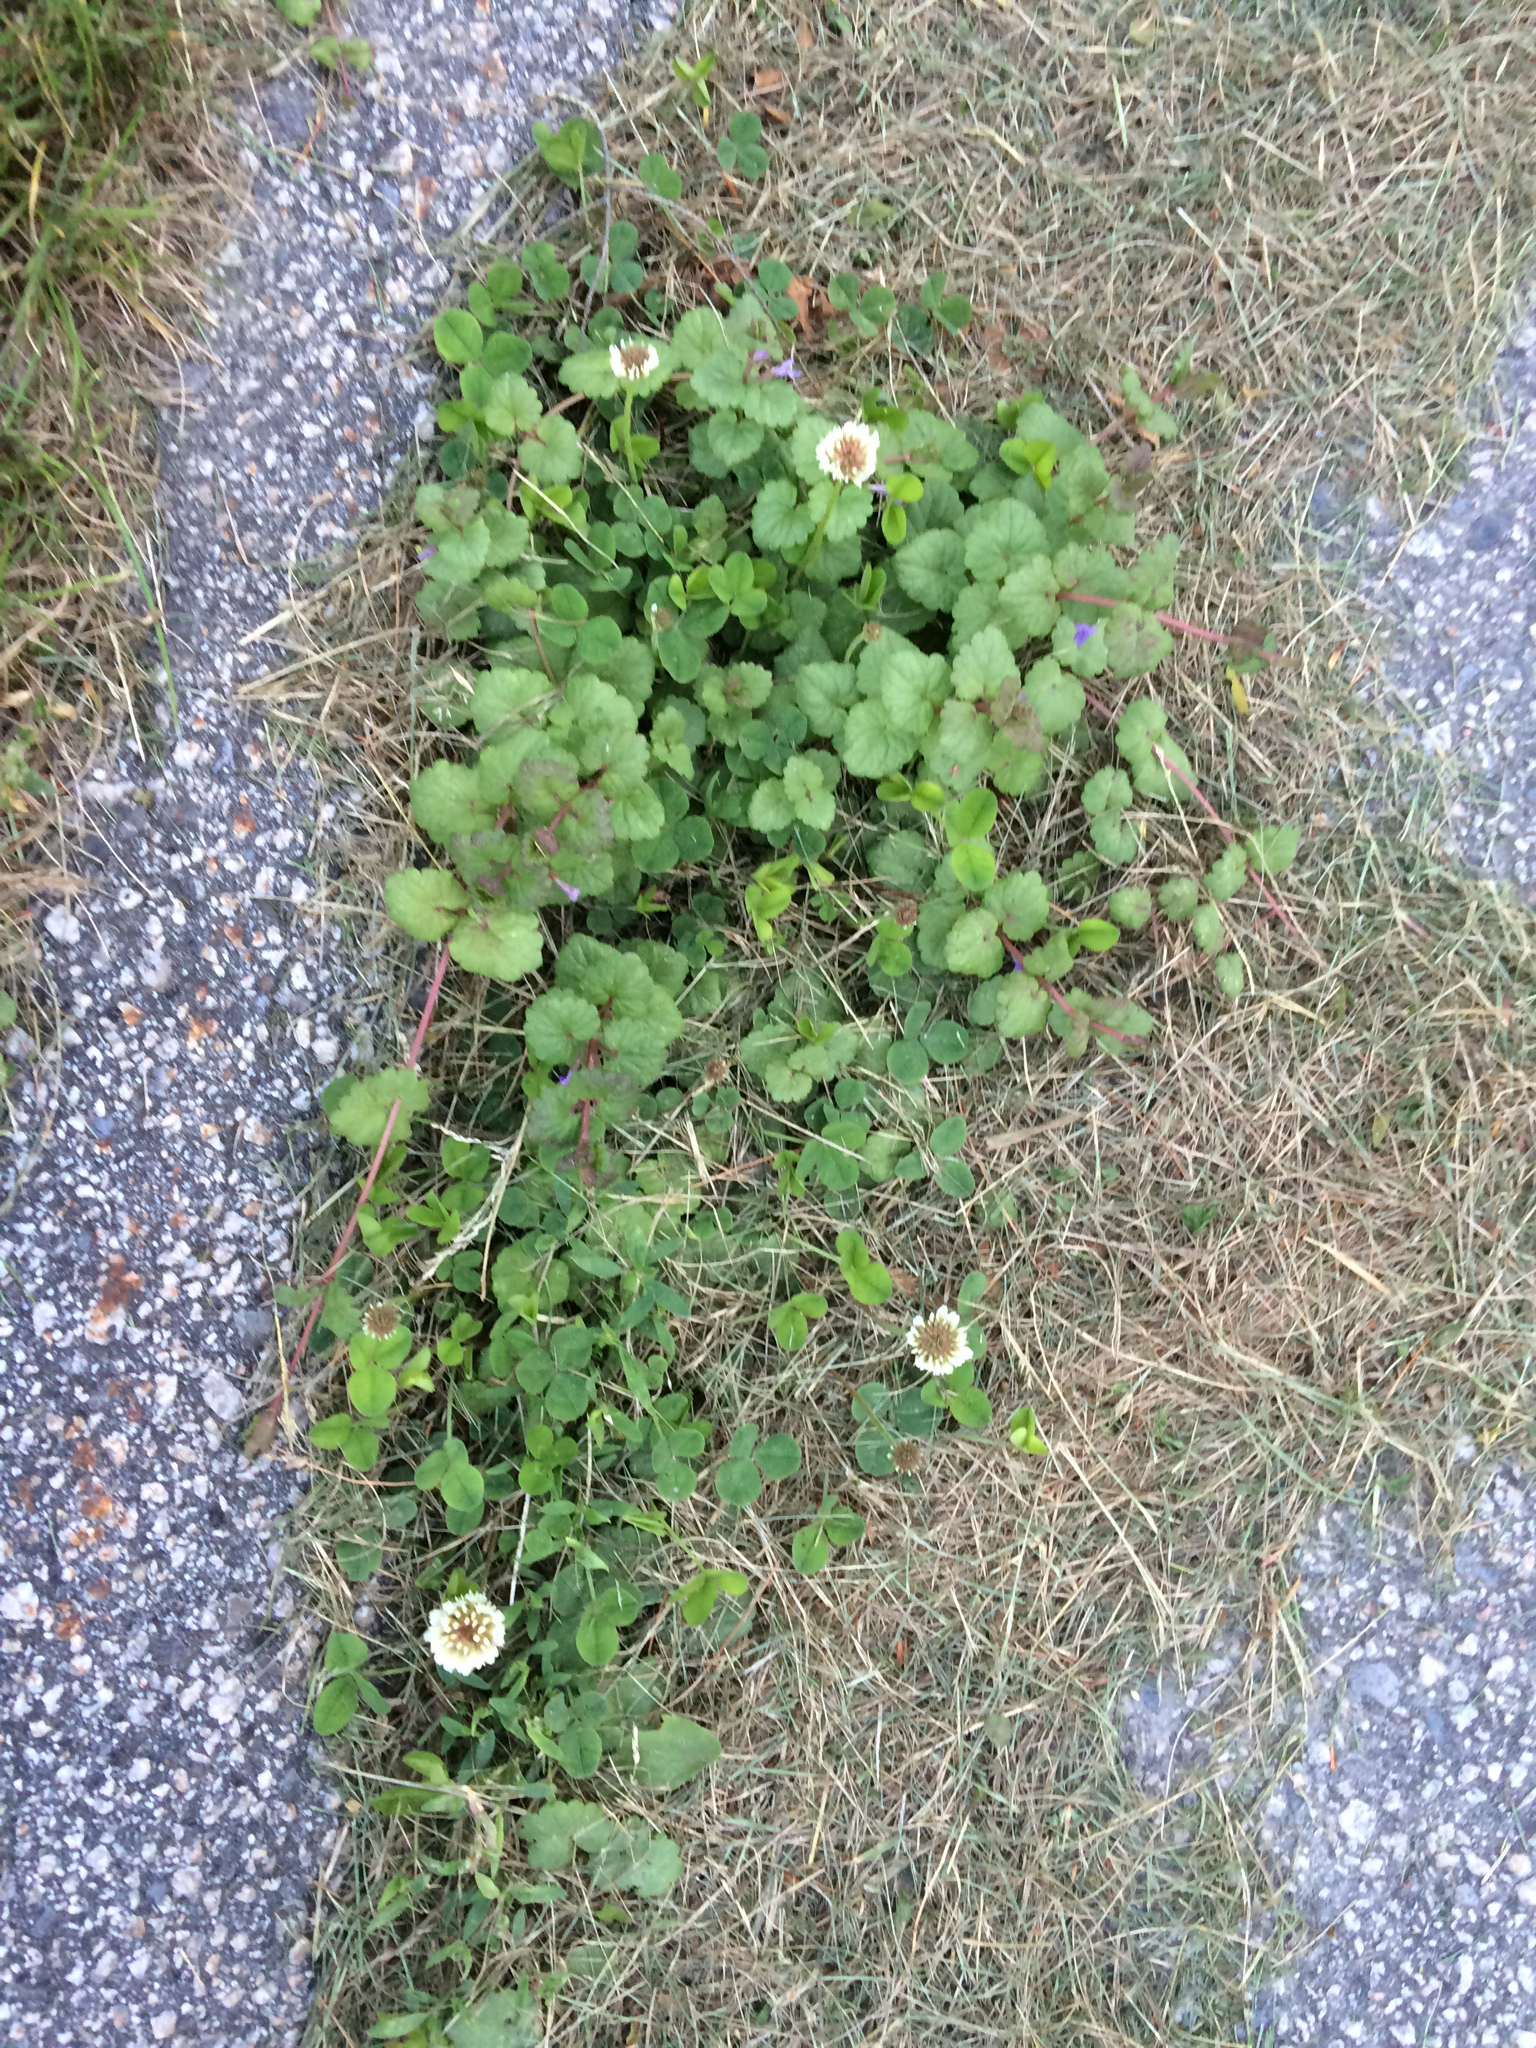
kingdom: Plantae
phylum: Tracheophyta
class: Magnoliopsida
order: Fabales
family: Fabaceae
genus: Trifolium
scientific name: Trifolium repens
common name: White clover
